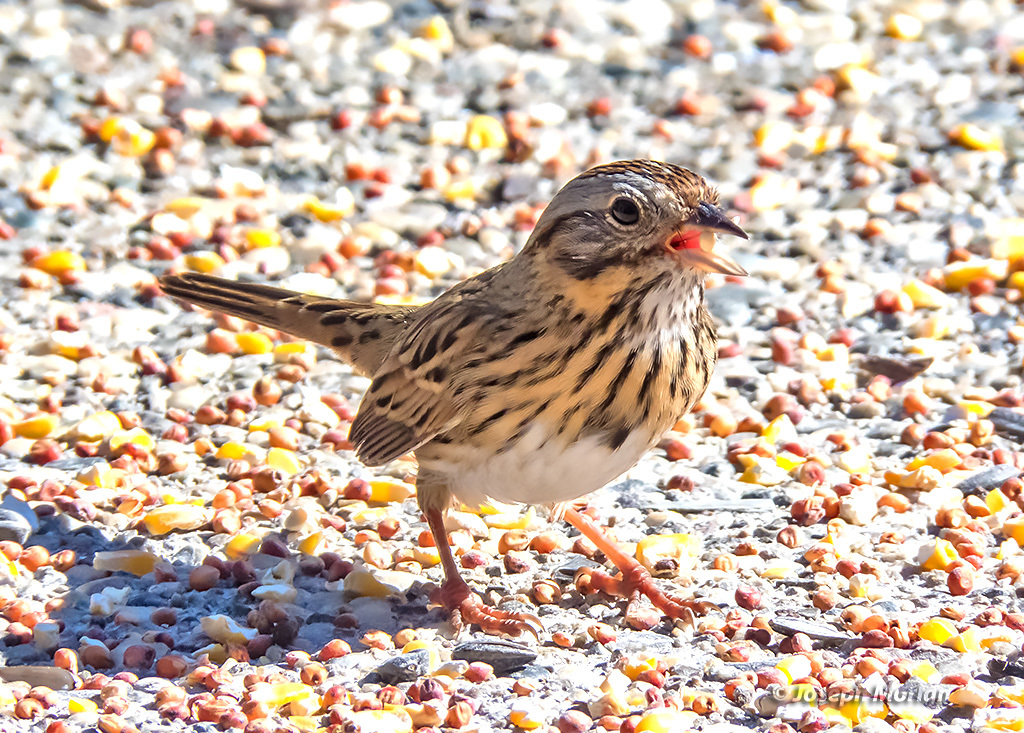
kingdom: Animalia
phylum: Chordata
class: Aves
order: Passeriformes
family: Passerellidae
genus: Melospiza
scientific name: Melospiza lincolnii
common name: Lincoln's sparrow
